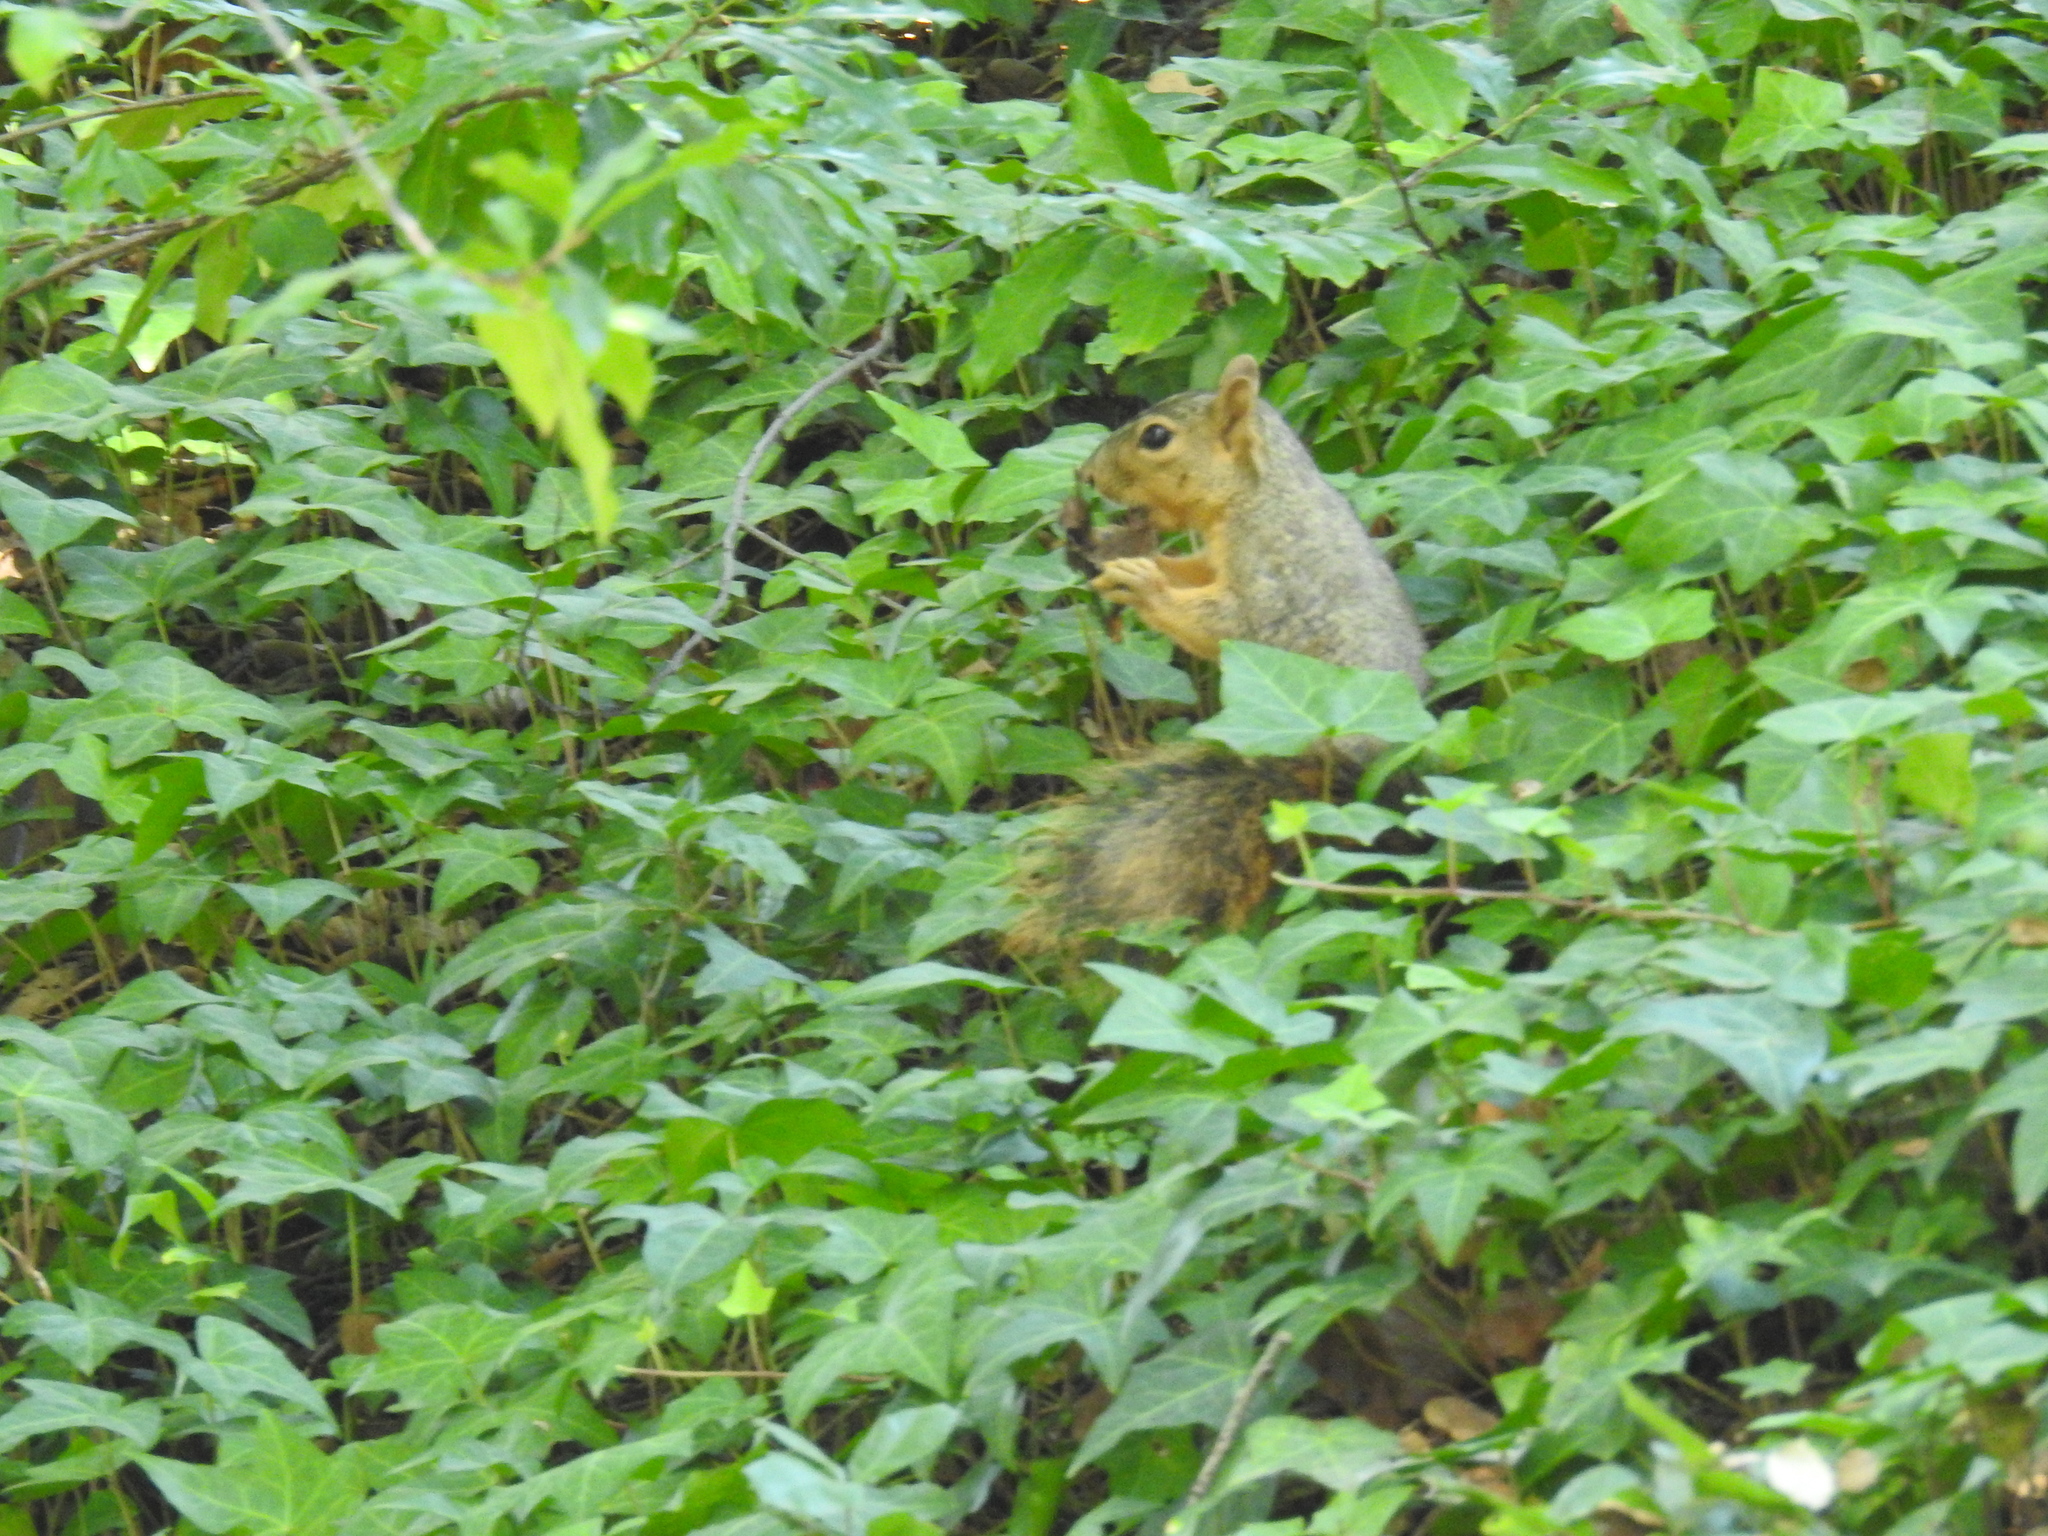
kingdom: Animalia
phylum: Chordata
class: Mammalia
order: Rodentia
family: Sciuridae
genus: Sciurus
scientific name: Sciurus niger
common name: Fox squirrel
